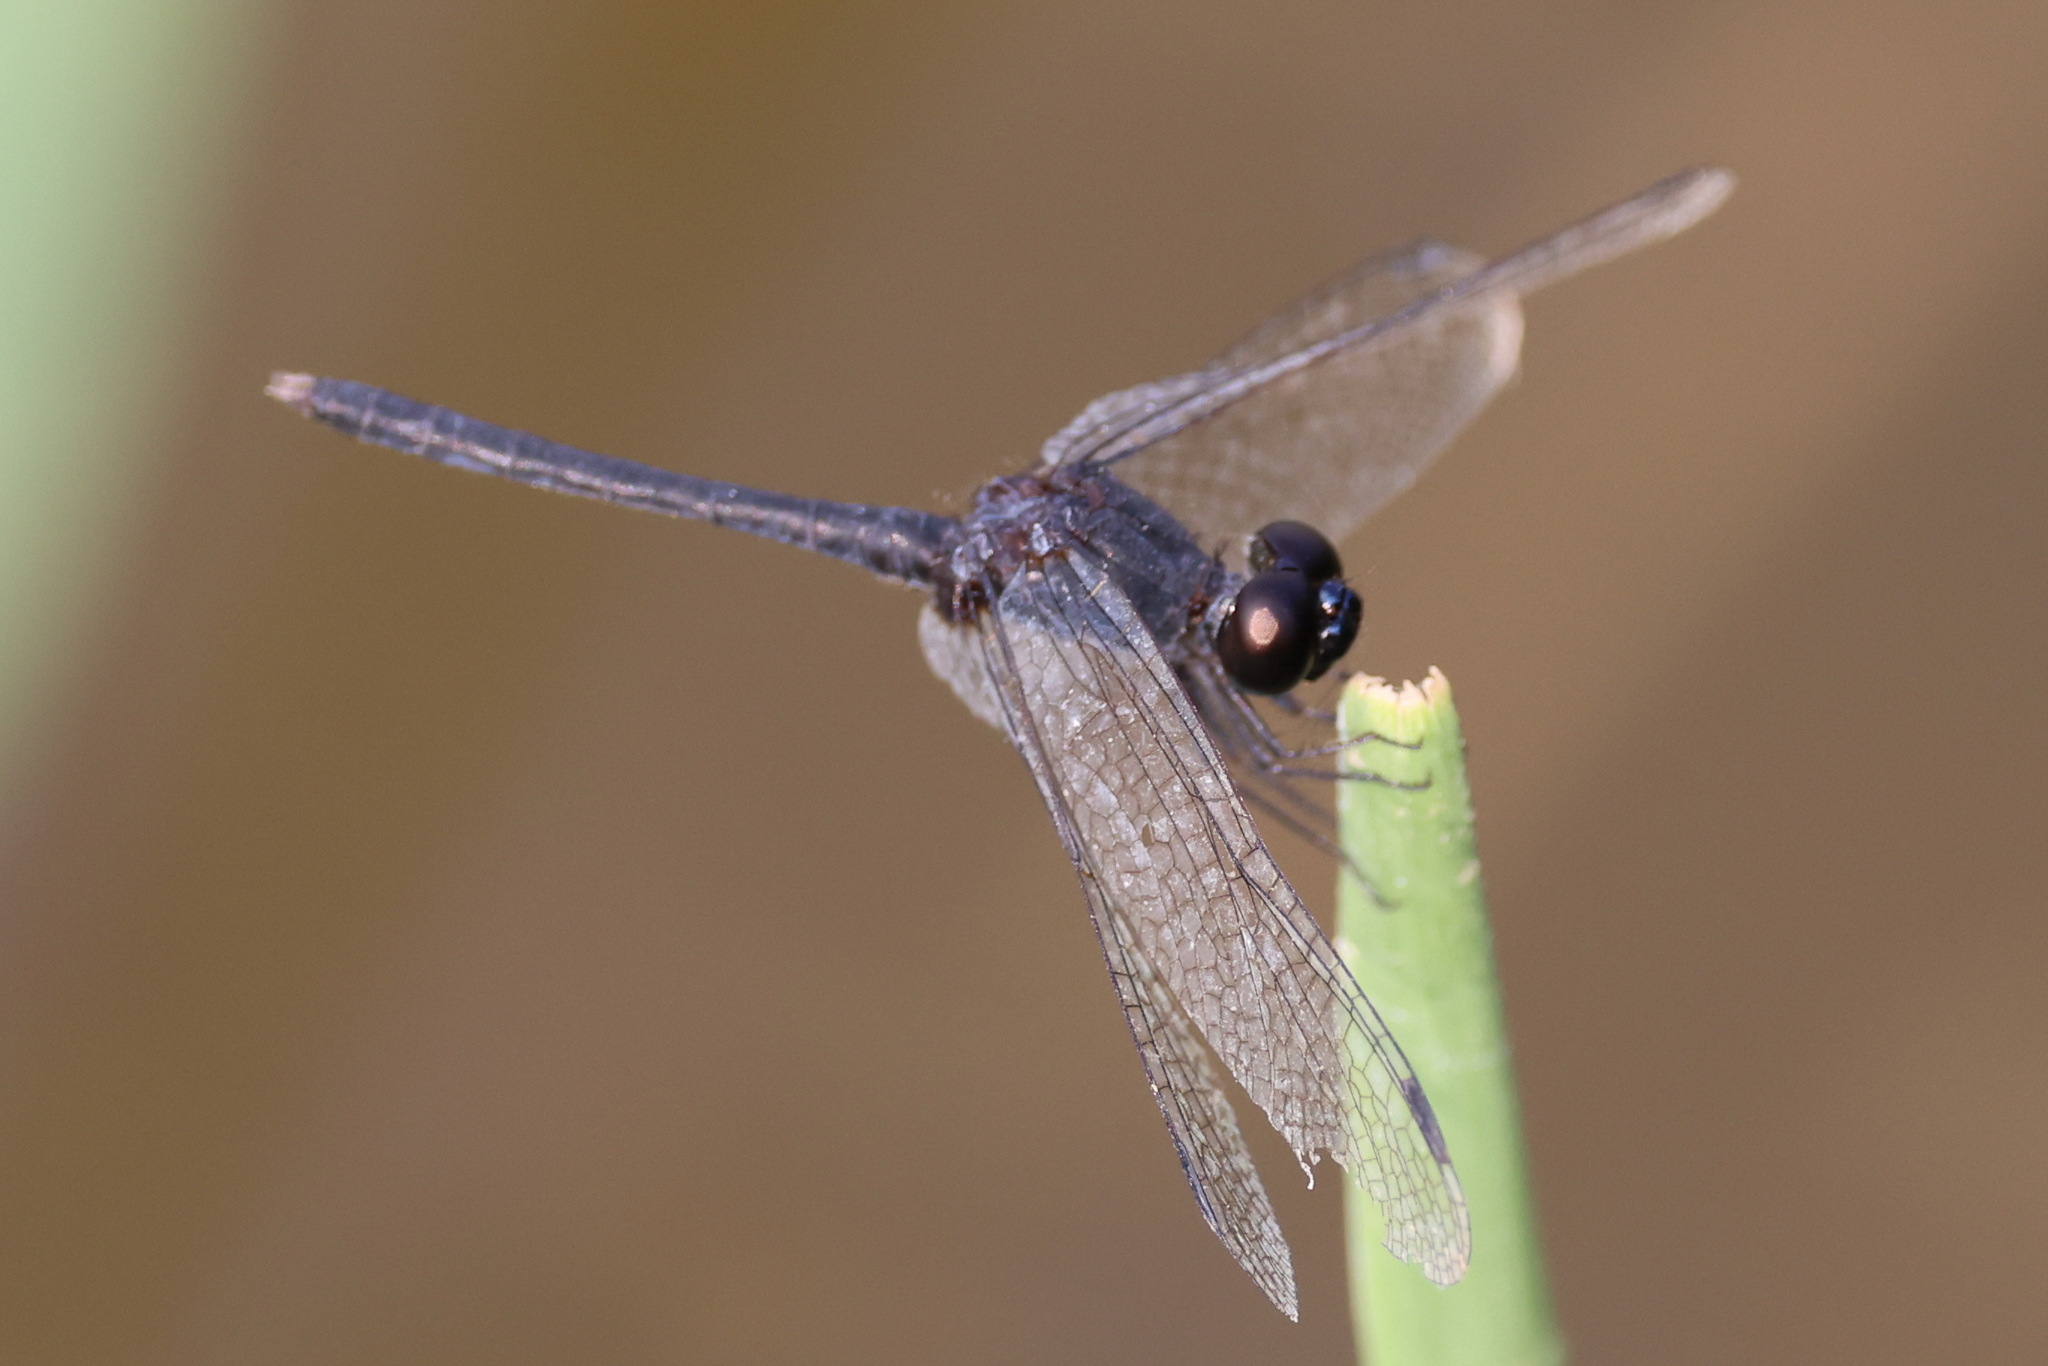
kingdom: Animalia
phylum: Arthropoda
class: Insecta
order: Odonata
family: Libellulidae
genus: Diplacodes
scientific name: Diplacodes lefebvrii
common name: Black percher
